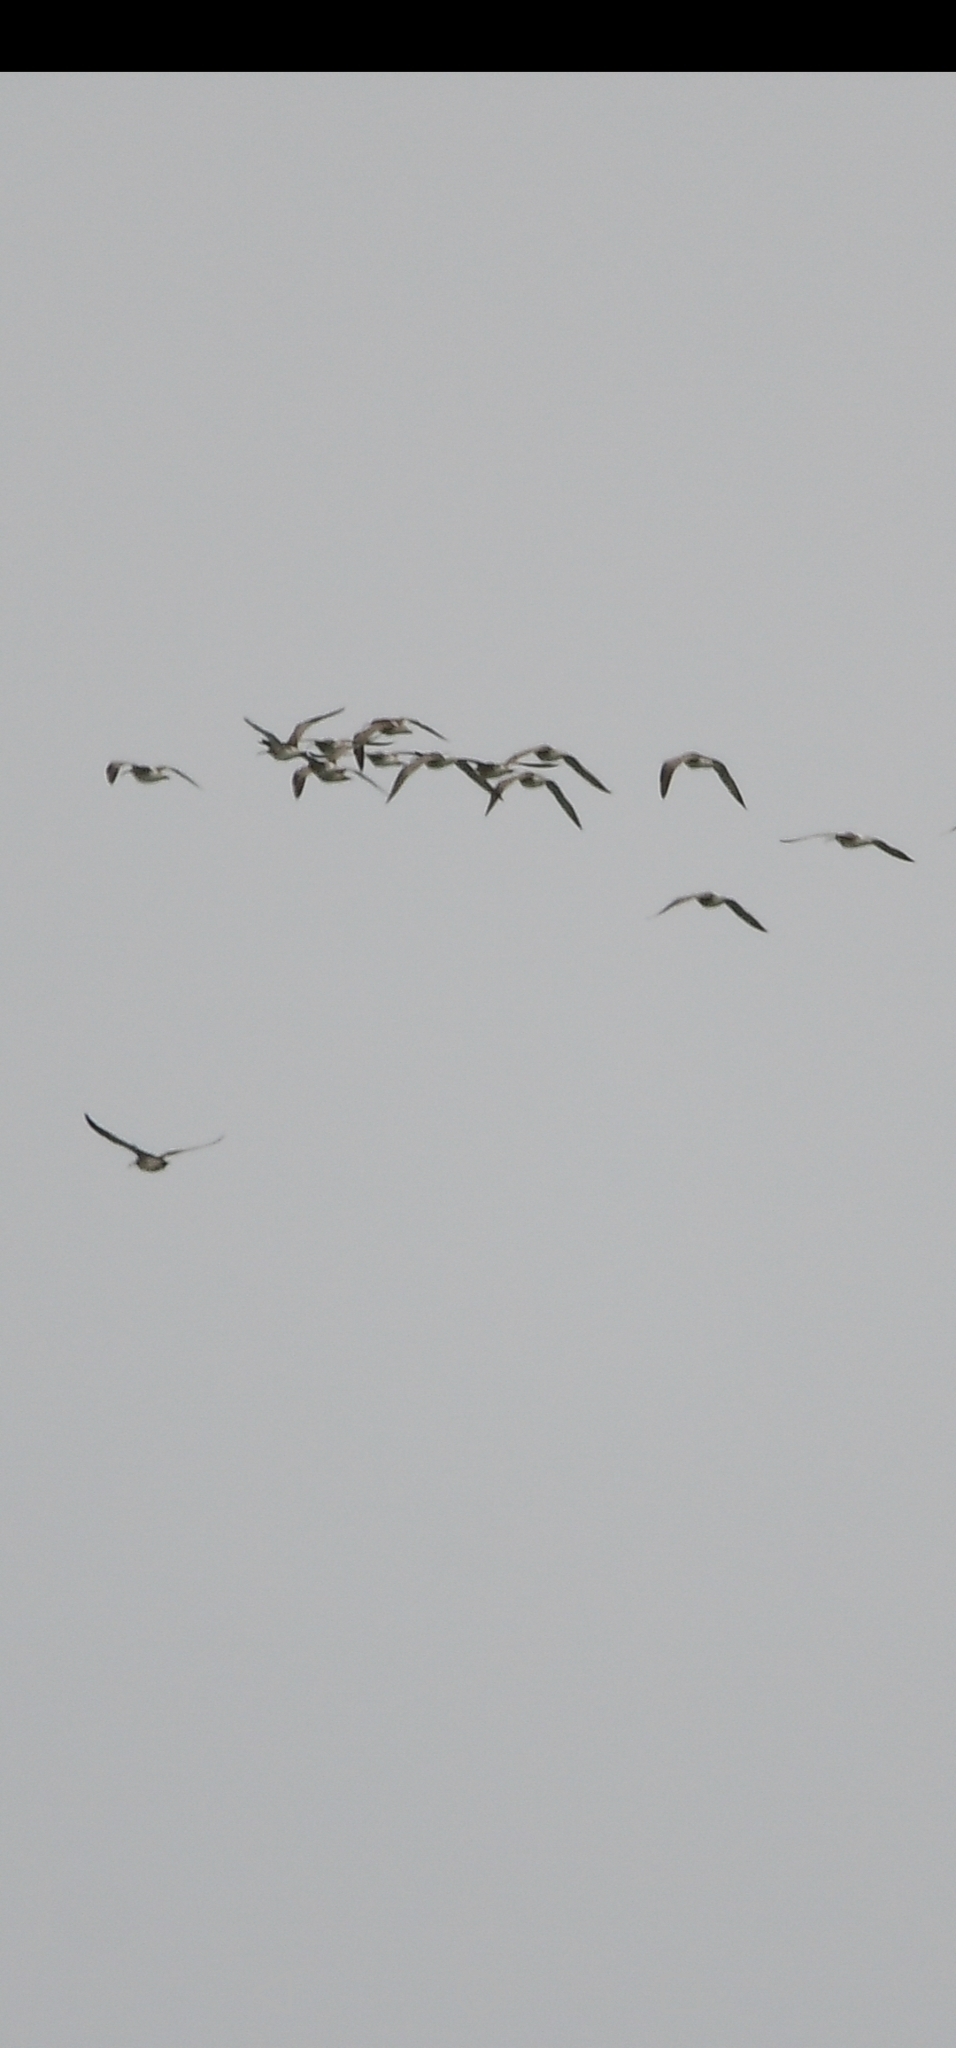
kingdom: Animalia
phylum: Chordata
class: Aves
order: Charadriiformes
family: Scolopacidae
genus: Numenius
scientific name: Numenius phaeopus
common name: Whimbrel
